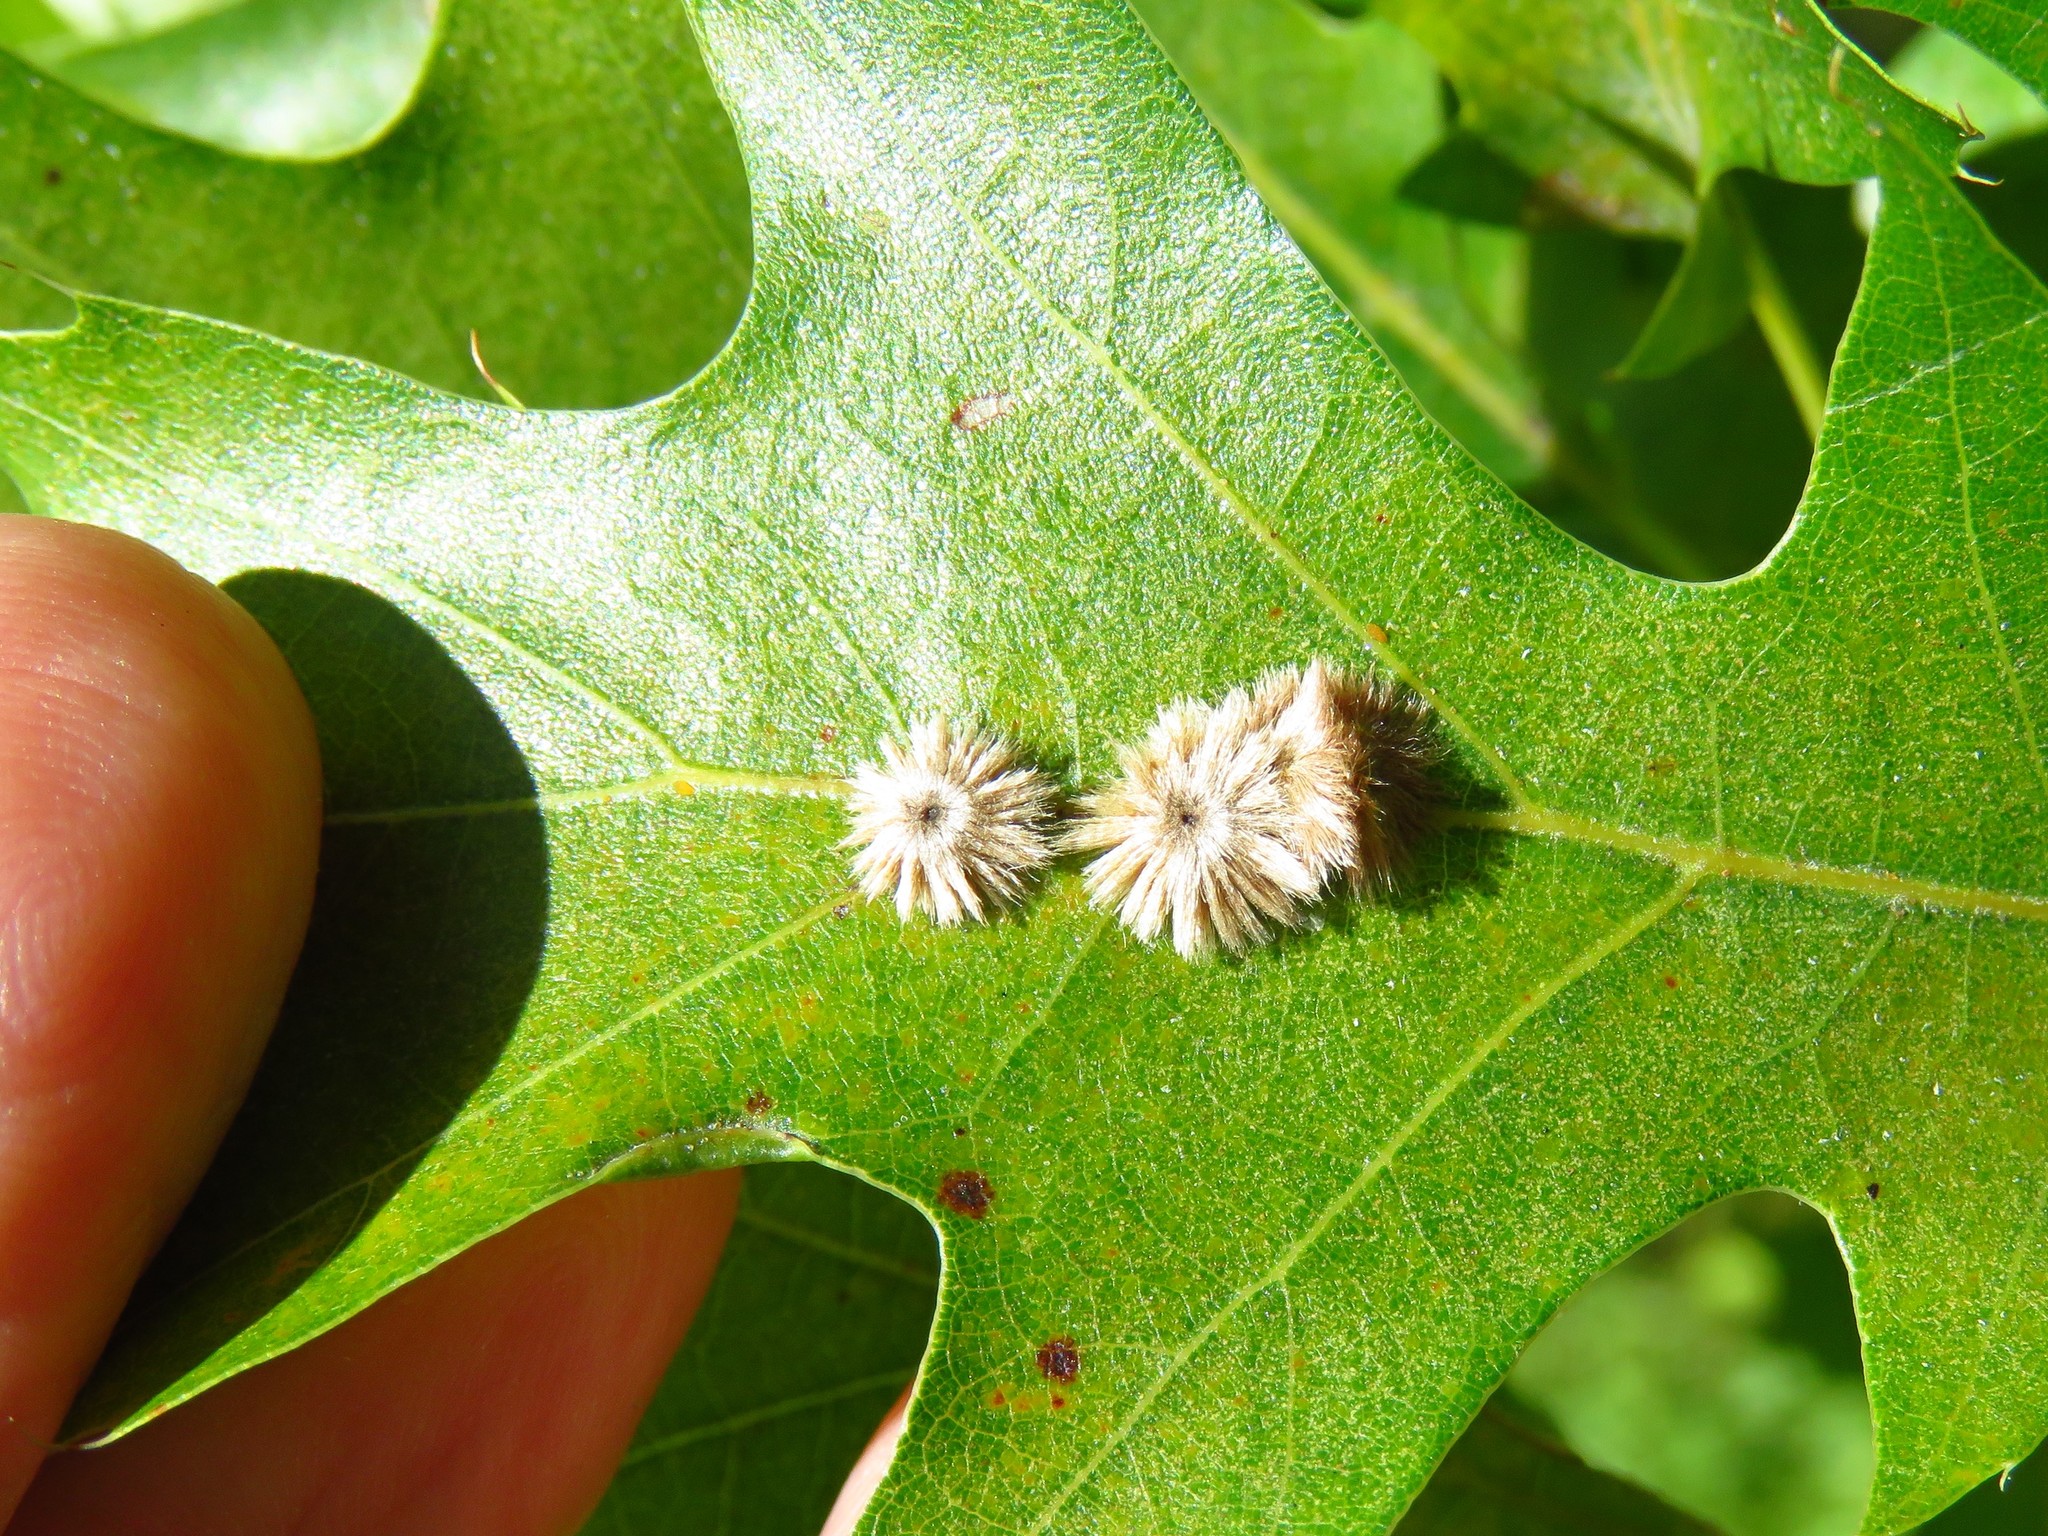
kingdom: Animalia
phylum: Arthropoda
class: Insecta
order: Hymenoptera
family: Cynipidae
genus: Callirhytis
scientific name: Callirhytis
